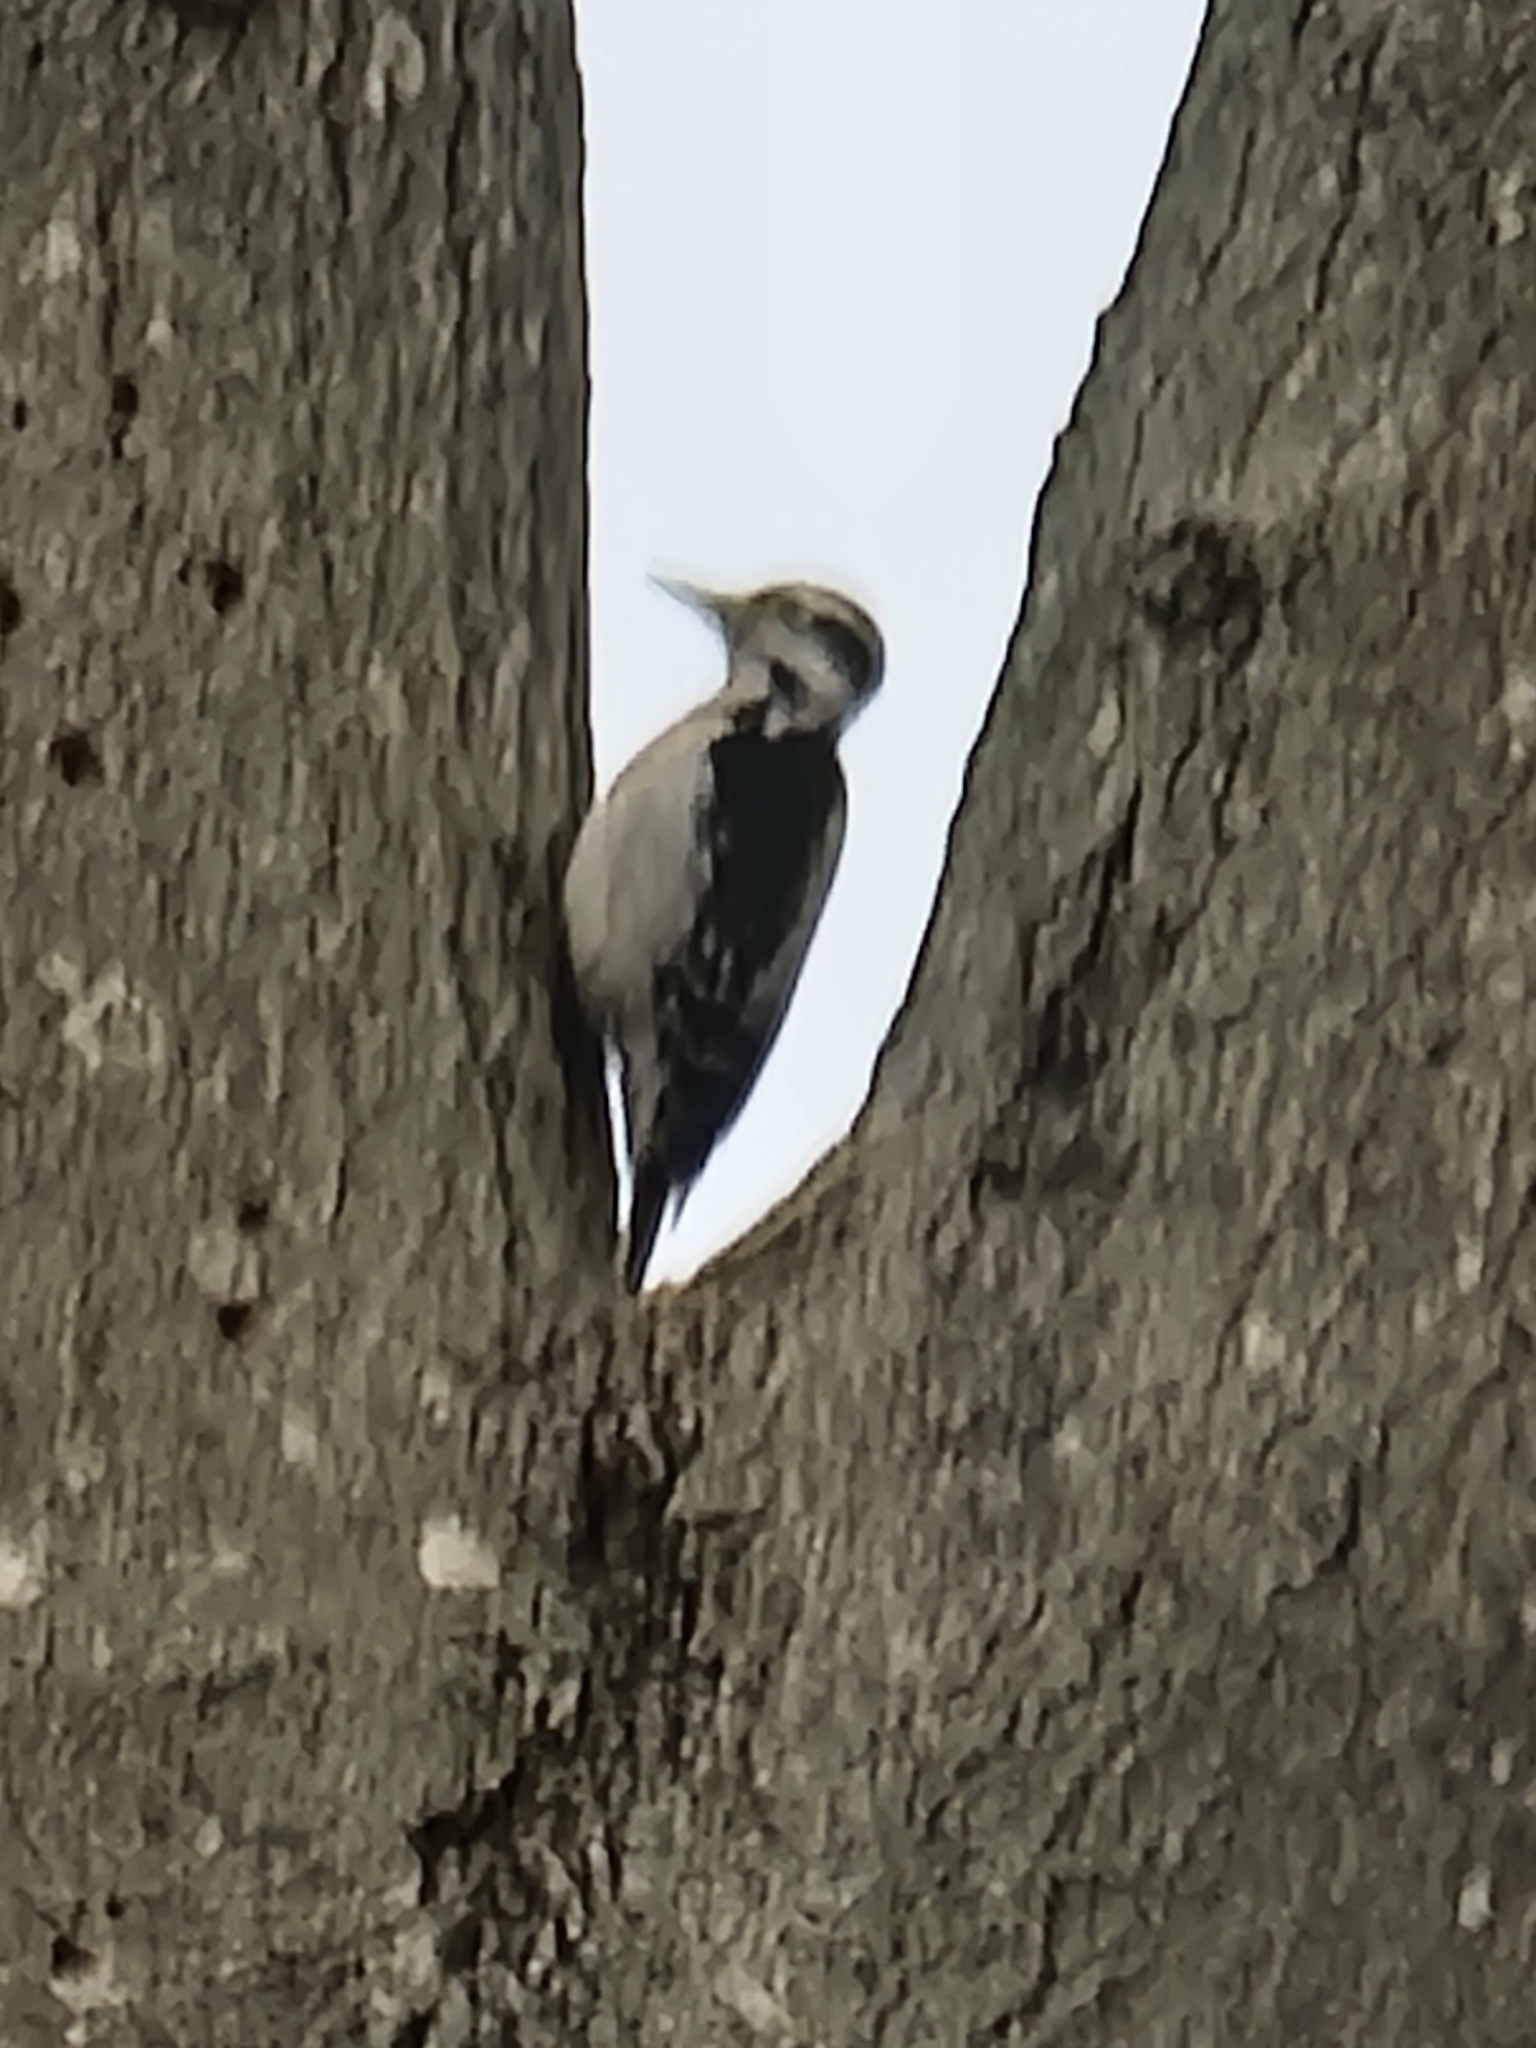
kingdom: Animalia
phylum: Chordata
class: Aves
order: Piciformes
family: Picidae
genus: Leuconotopicus
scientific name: Leuconotopicus villosus
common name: Hairy woodpecker
